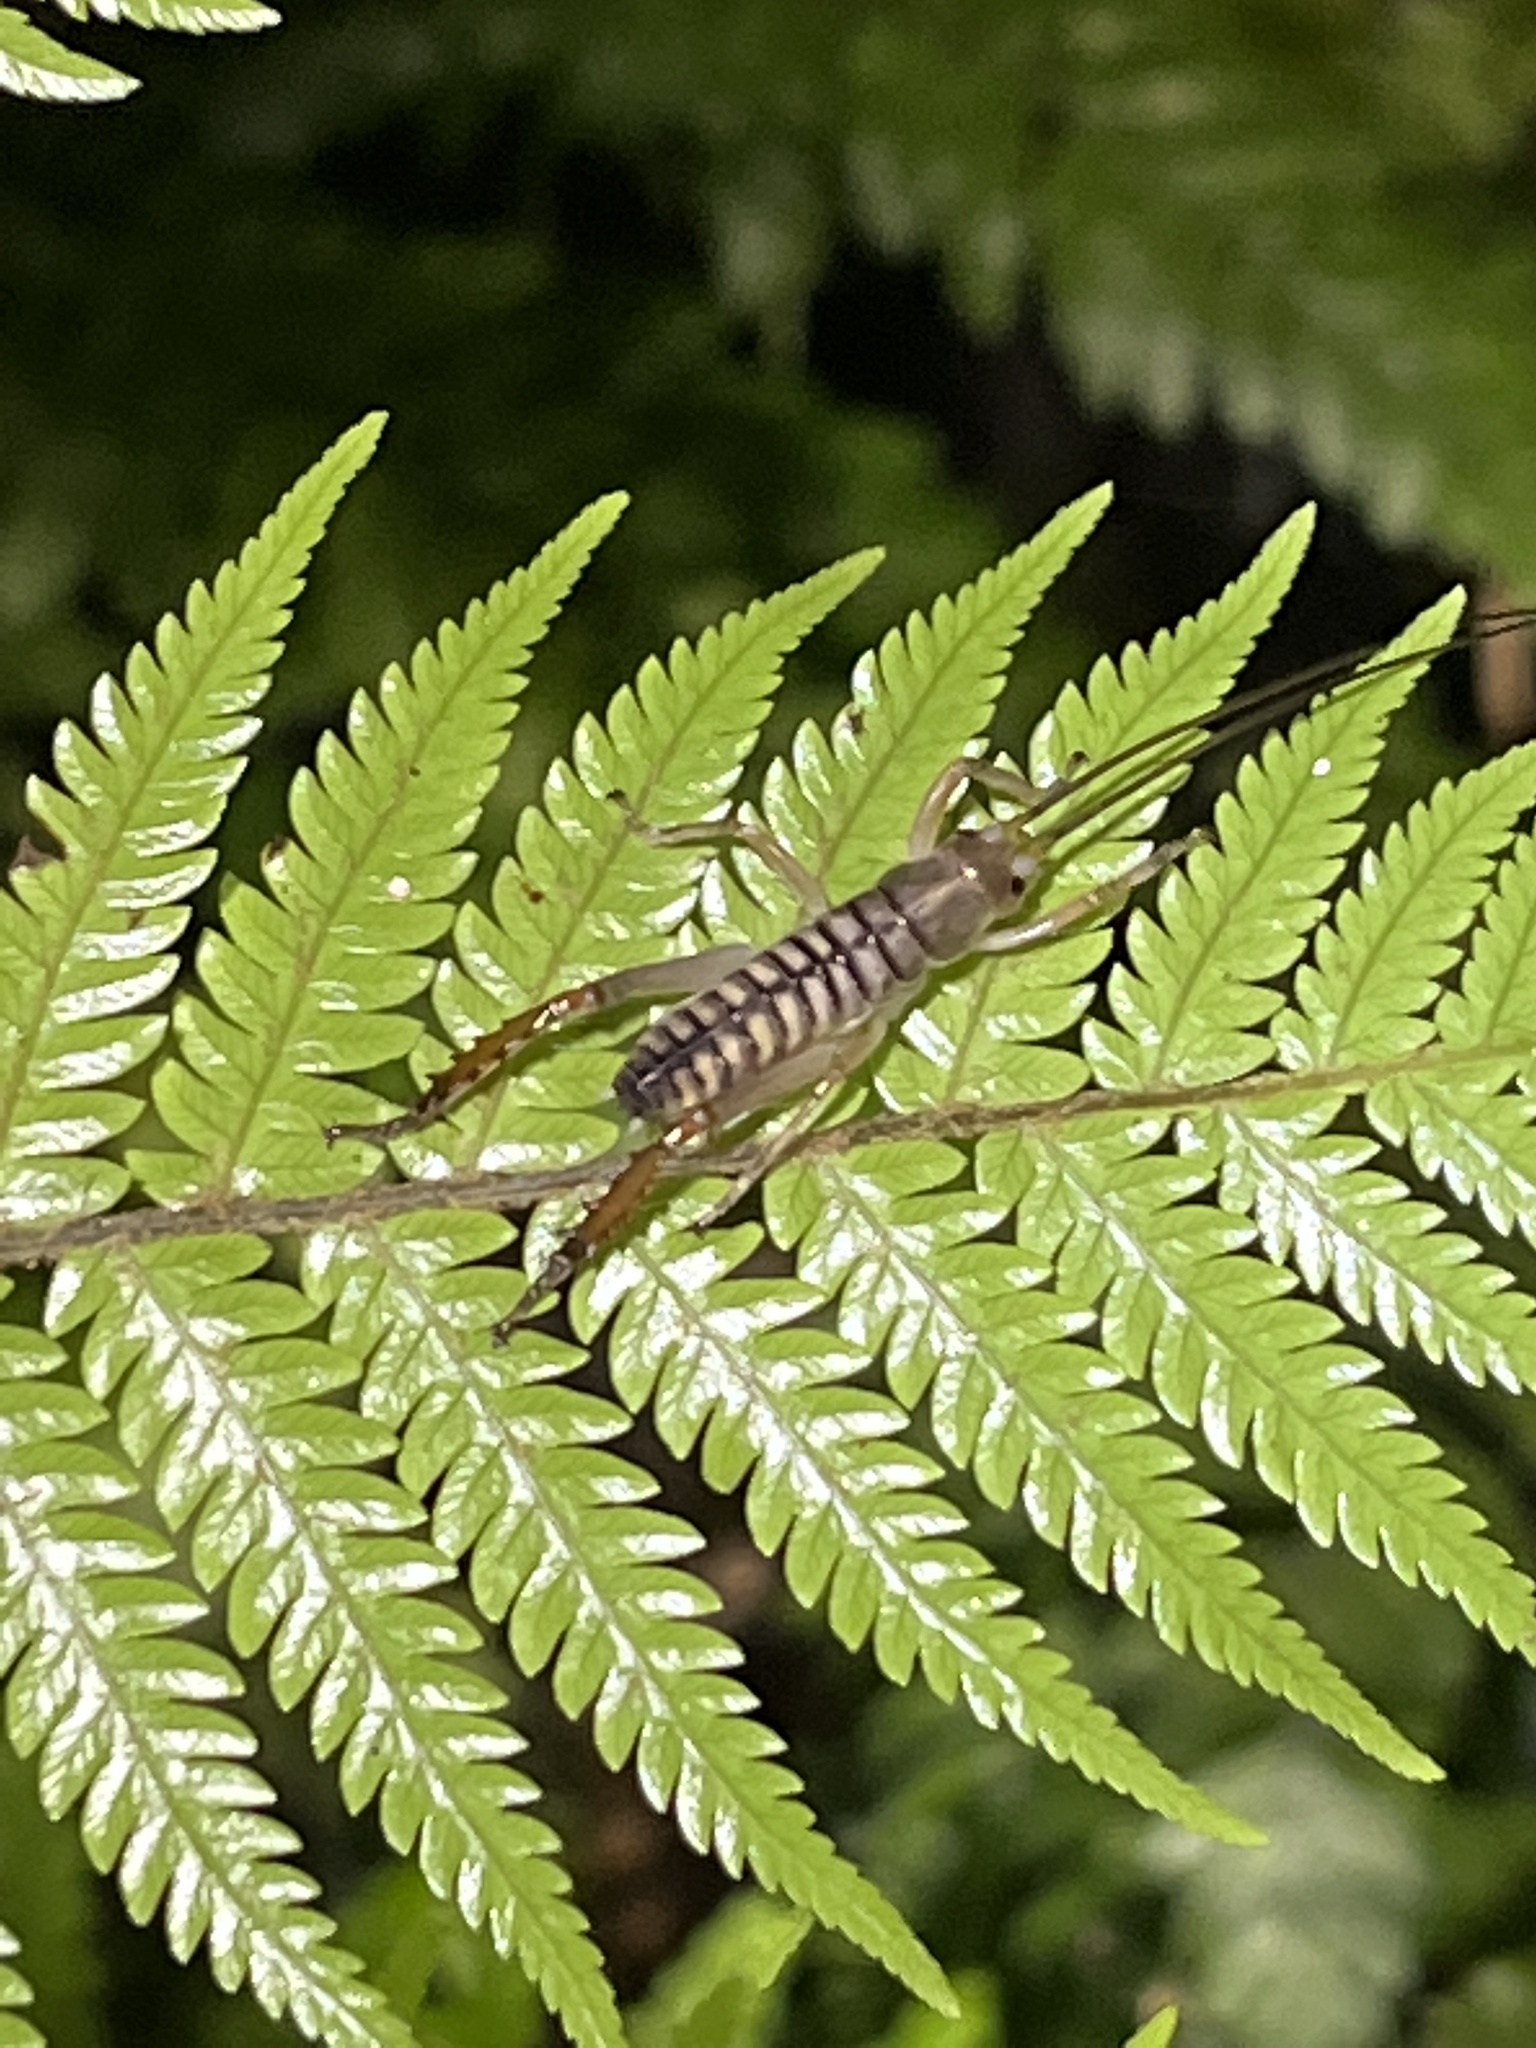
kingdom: Animalia
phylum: Arthropoda
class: Insecta
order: Orthoptera
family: Anostostomatidae
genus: Hemideina
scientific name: Hemideina crassidens
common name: Wellington tree weta
